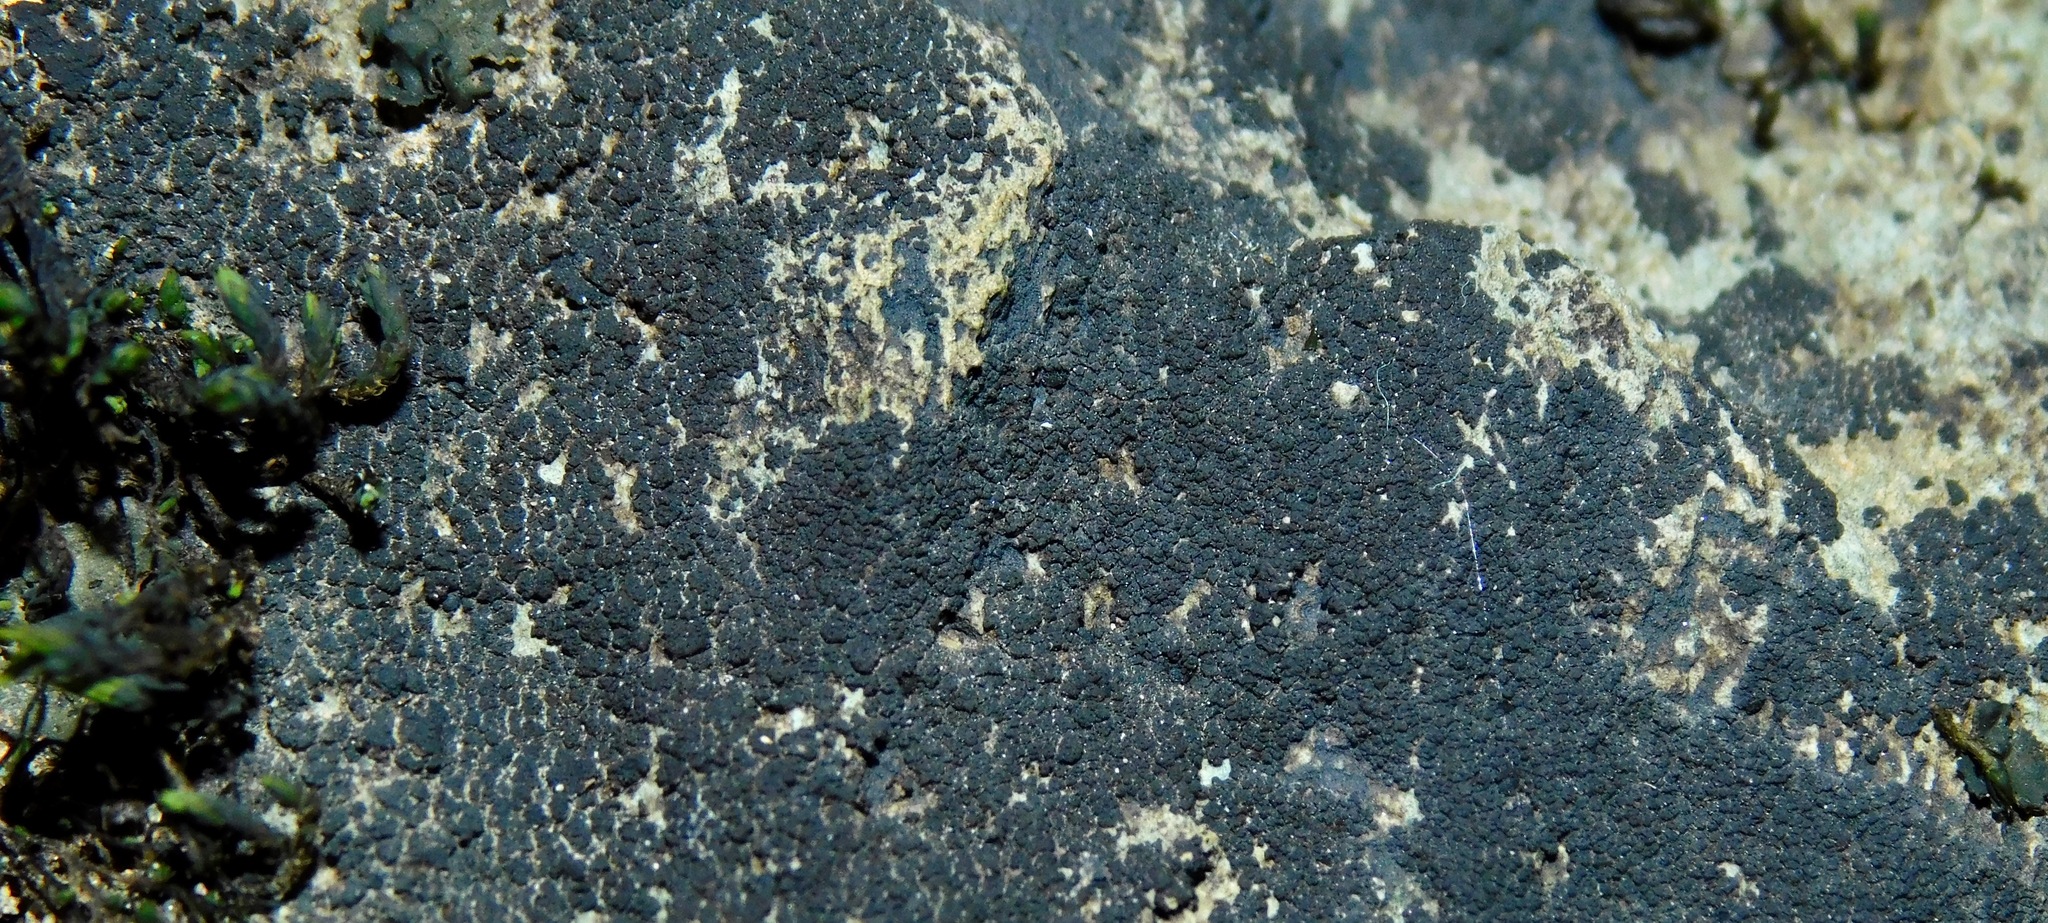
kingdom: Fungi
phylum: Ascomycota
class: Lichinomycetes
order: Lichinales
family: Lichinaceae
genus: Pyrenopsis
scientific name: Pyrenopsis polycocca
